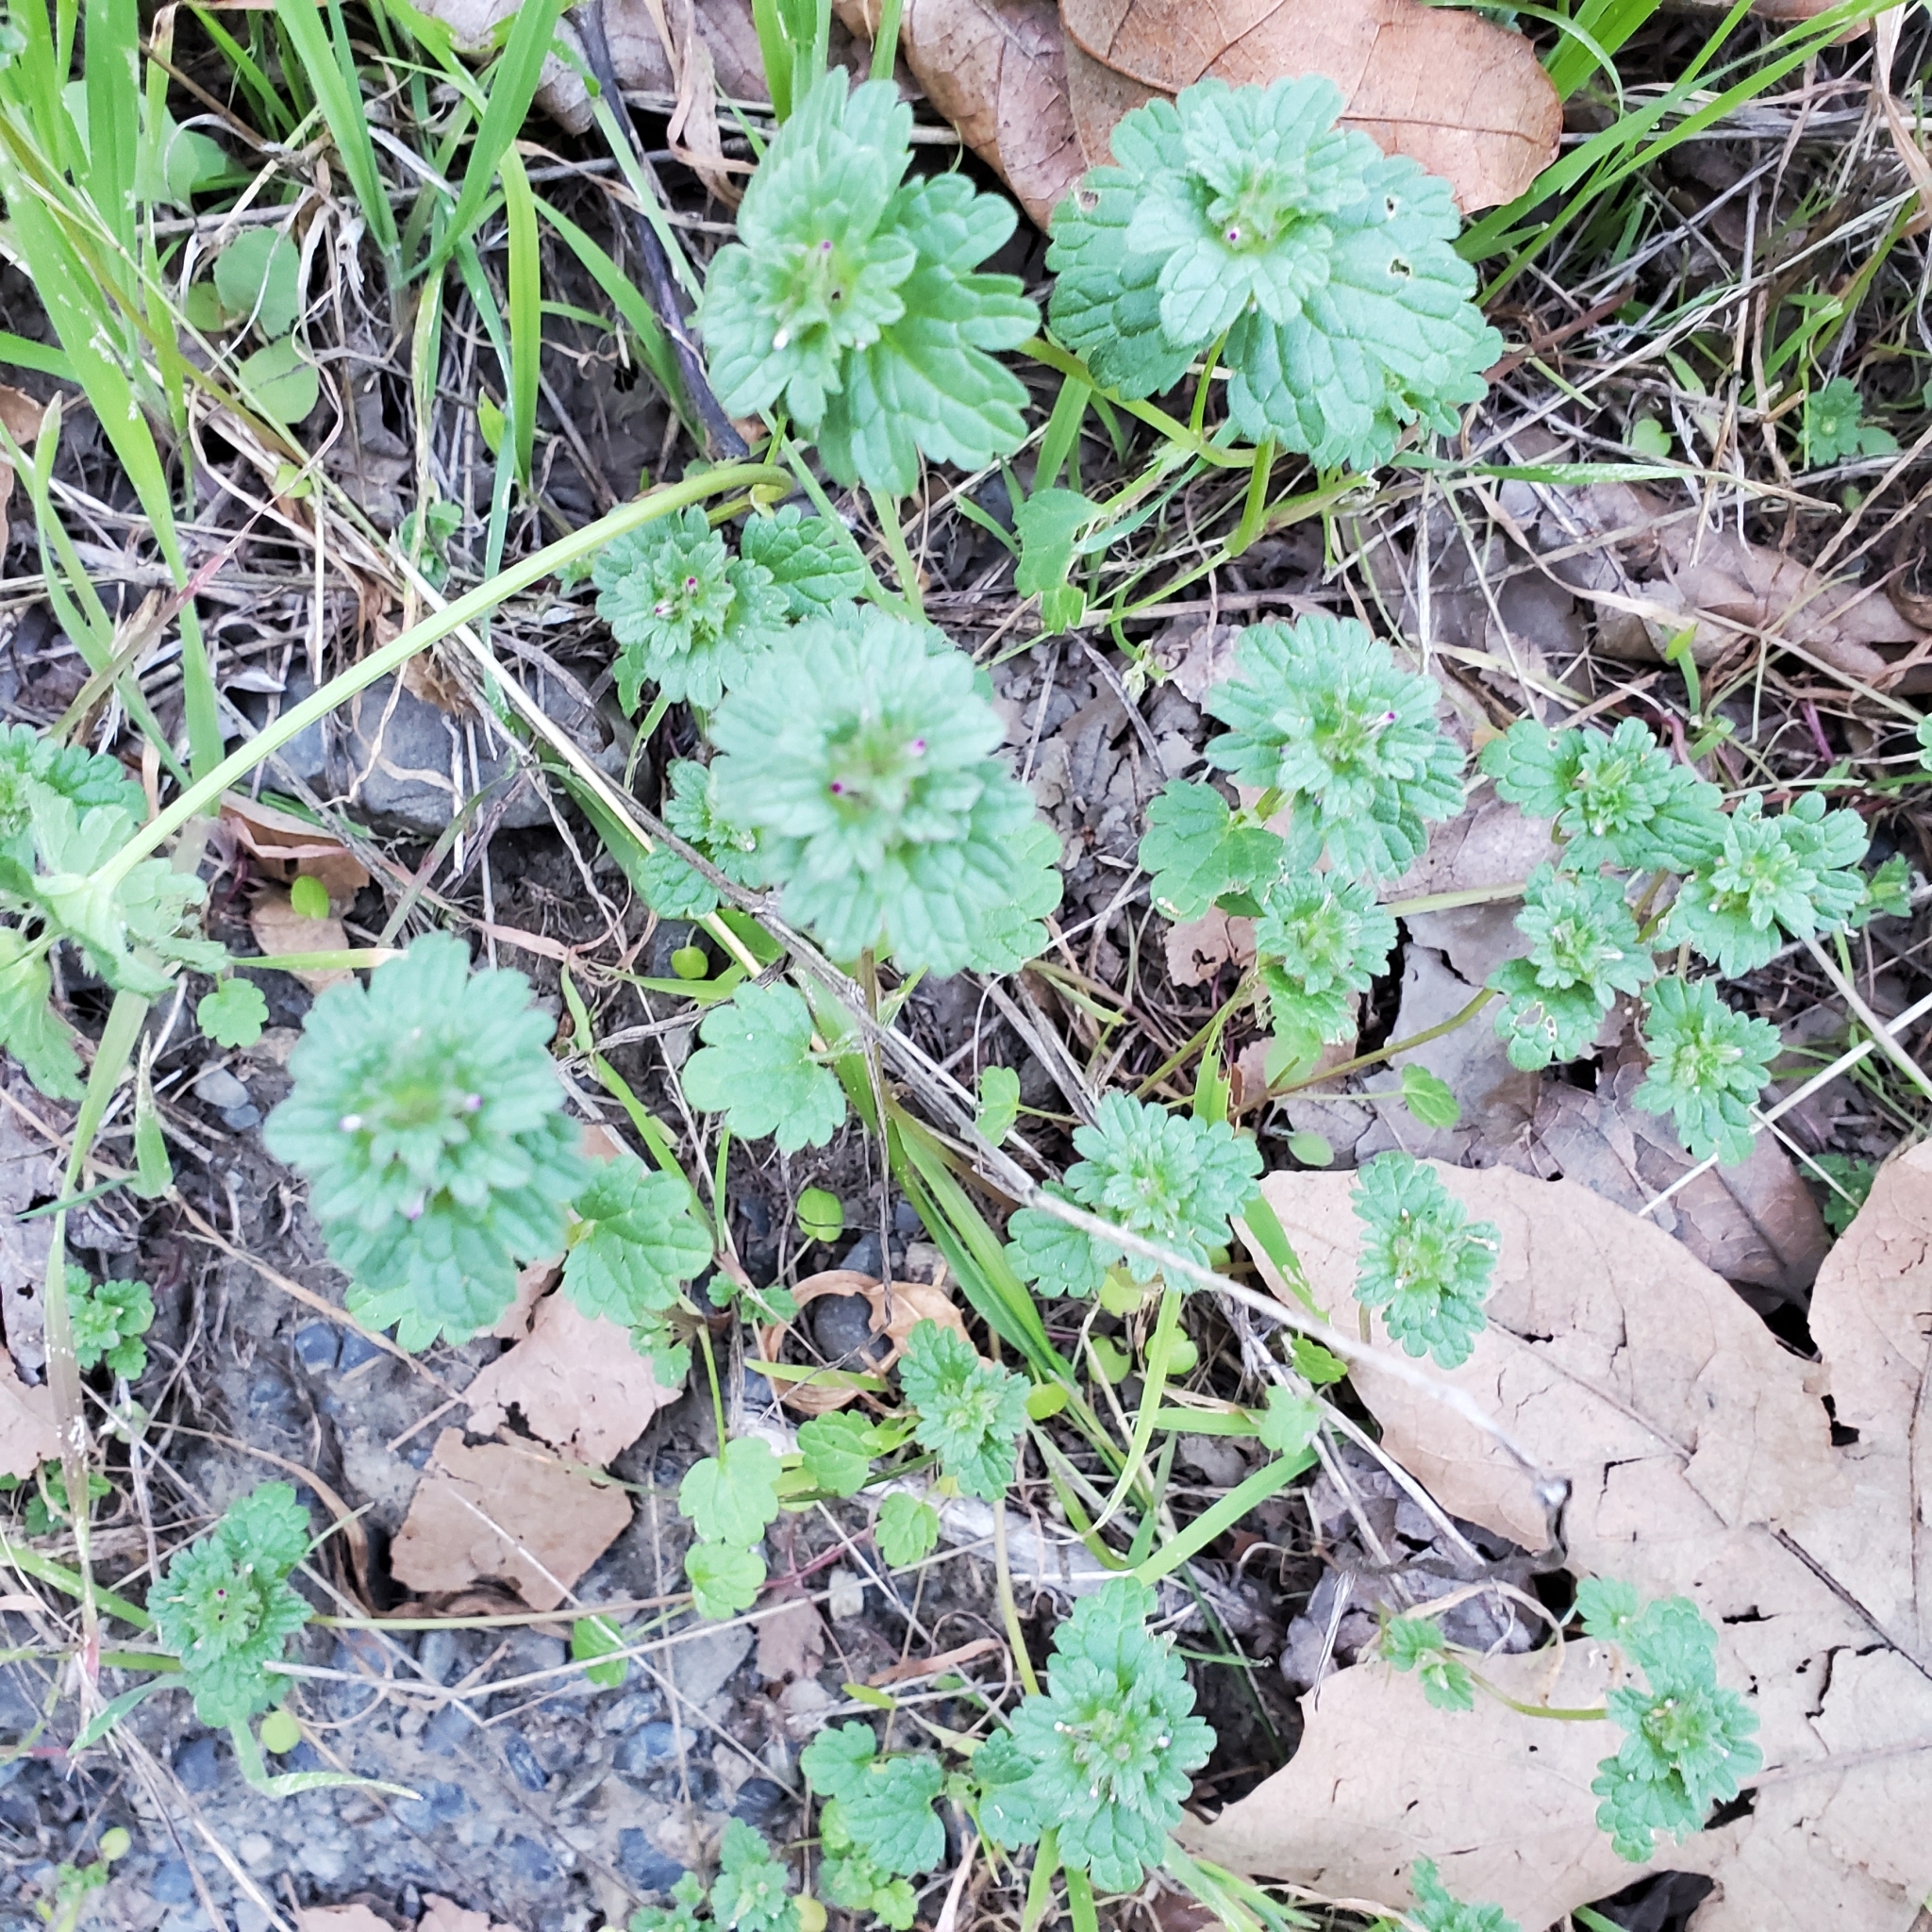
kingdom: Plantae
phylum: Tracheophyta
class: Magnoliopsida
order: Lamiales
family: Lamiaceae
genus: Lamium
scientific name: Lamium amplexicaule
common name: Henbit dead-nettle
